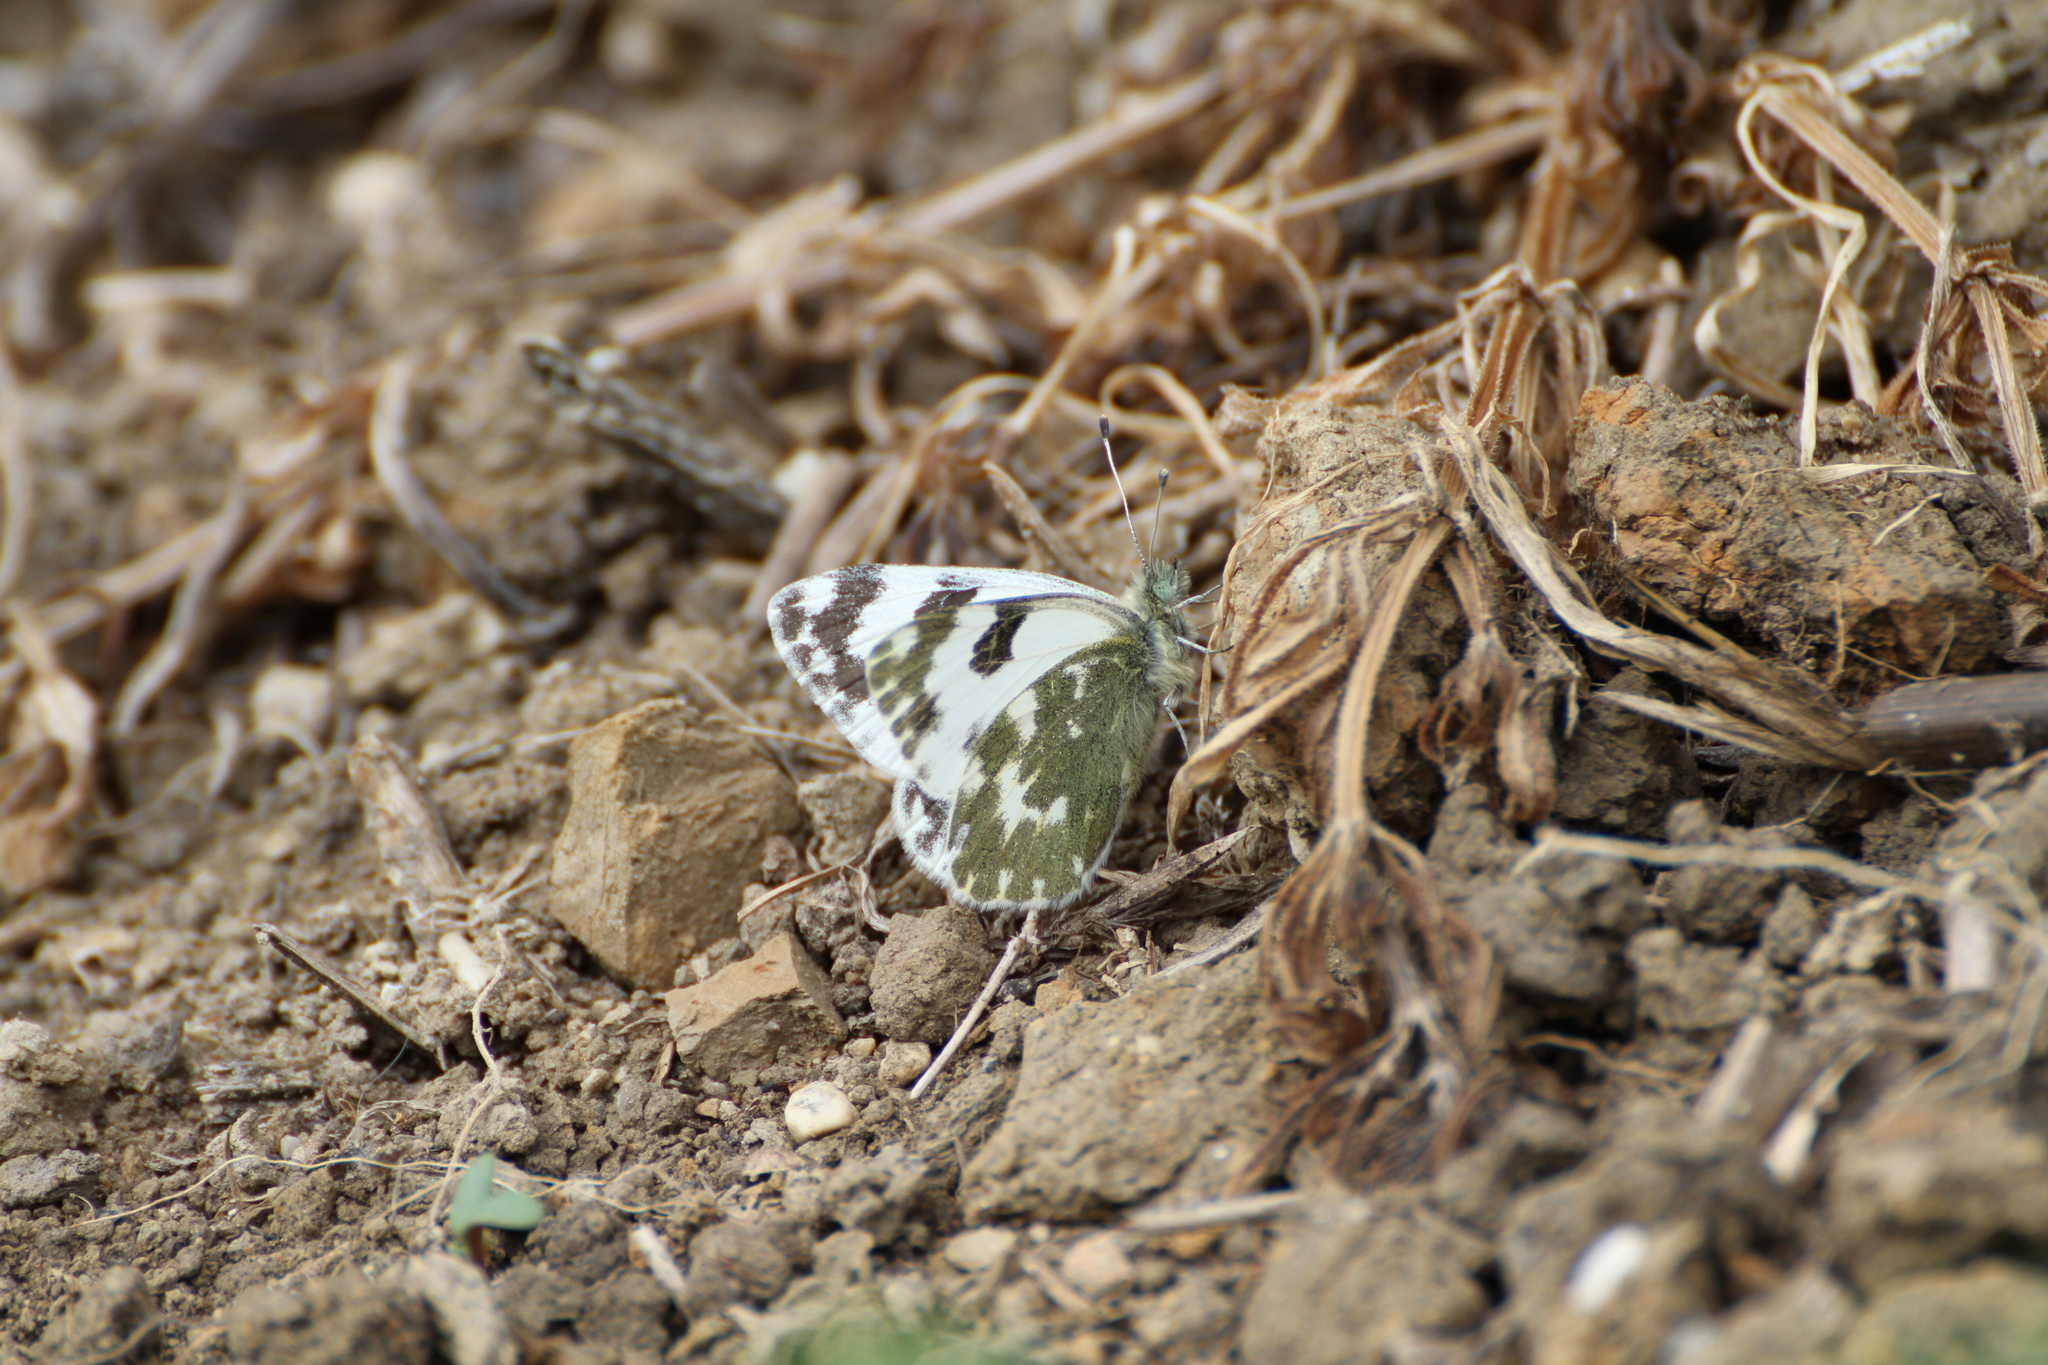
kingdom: Animalia
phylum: Arthropoda
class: Insecta
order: Lepidoptera
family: Pieridae
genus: Pontia
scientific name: Pontia daplidice
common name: Bath white
